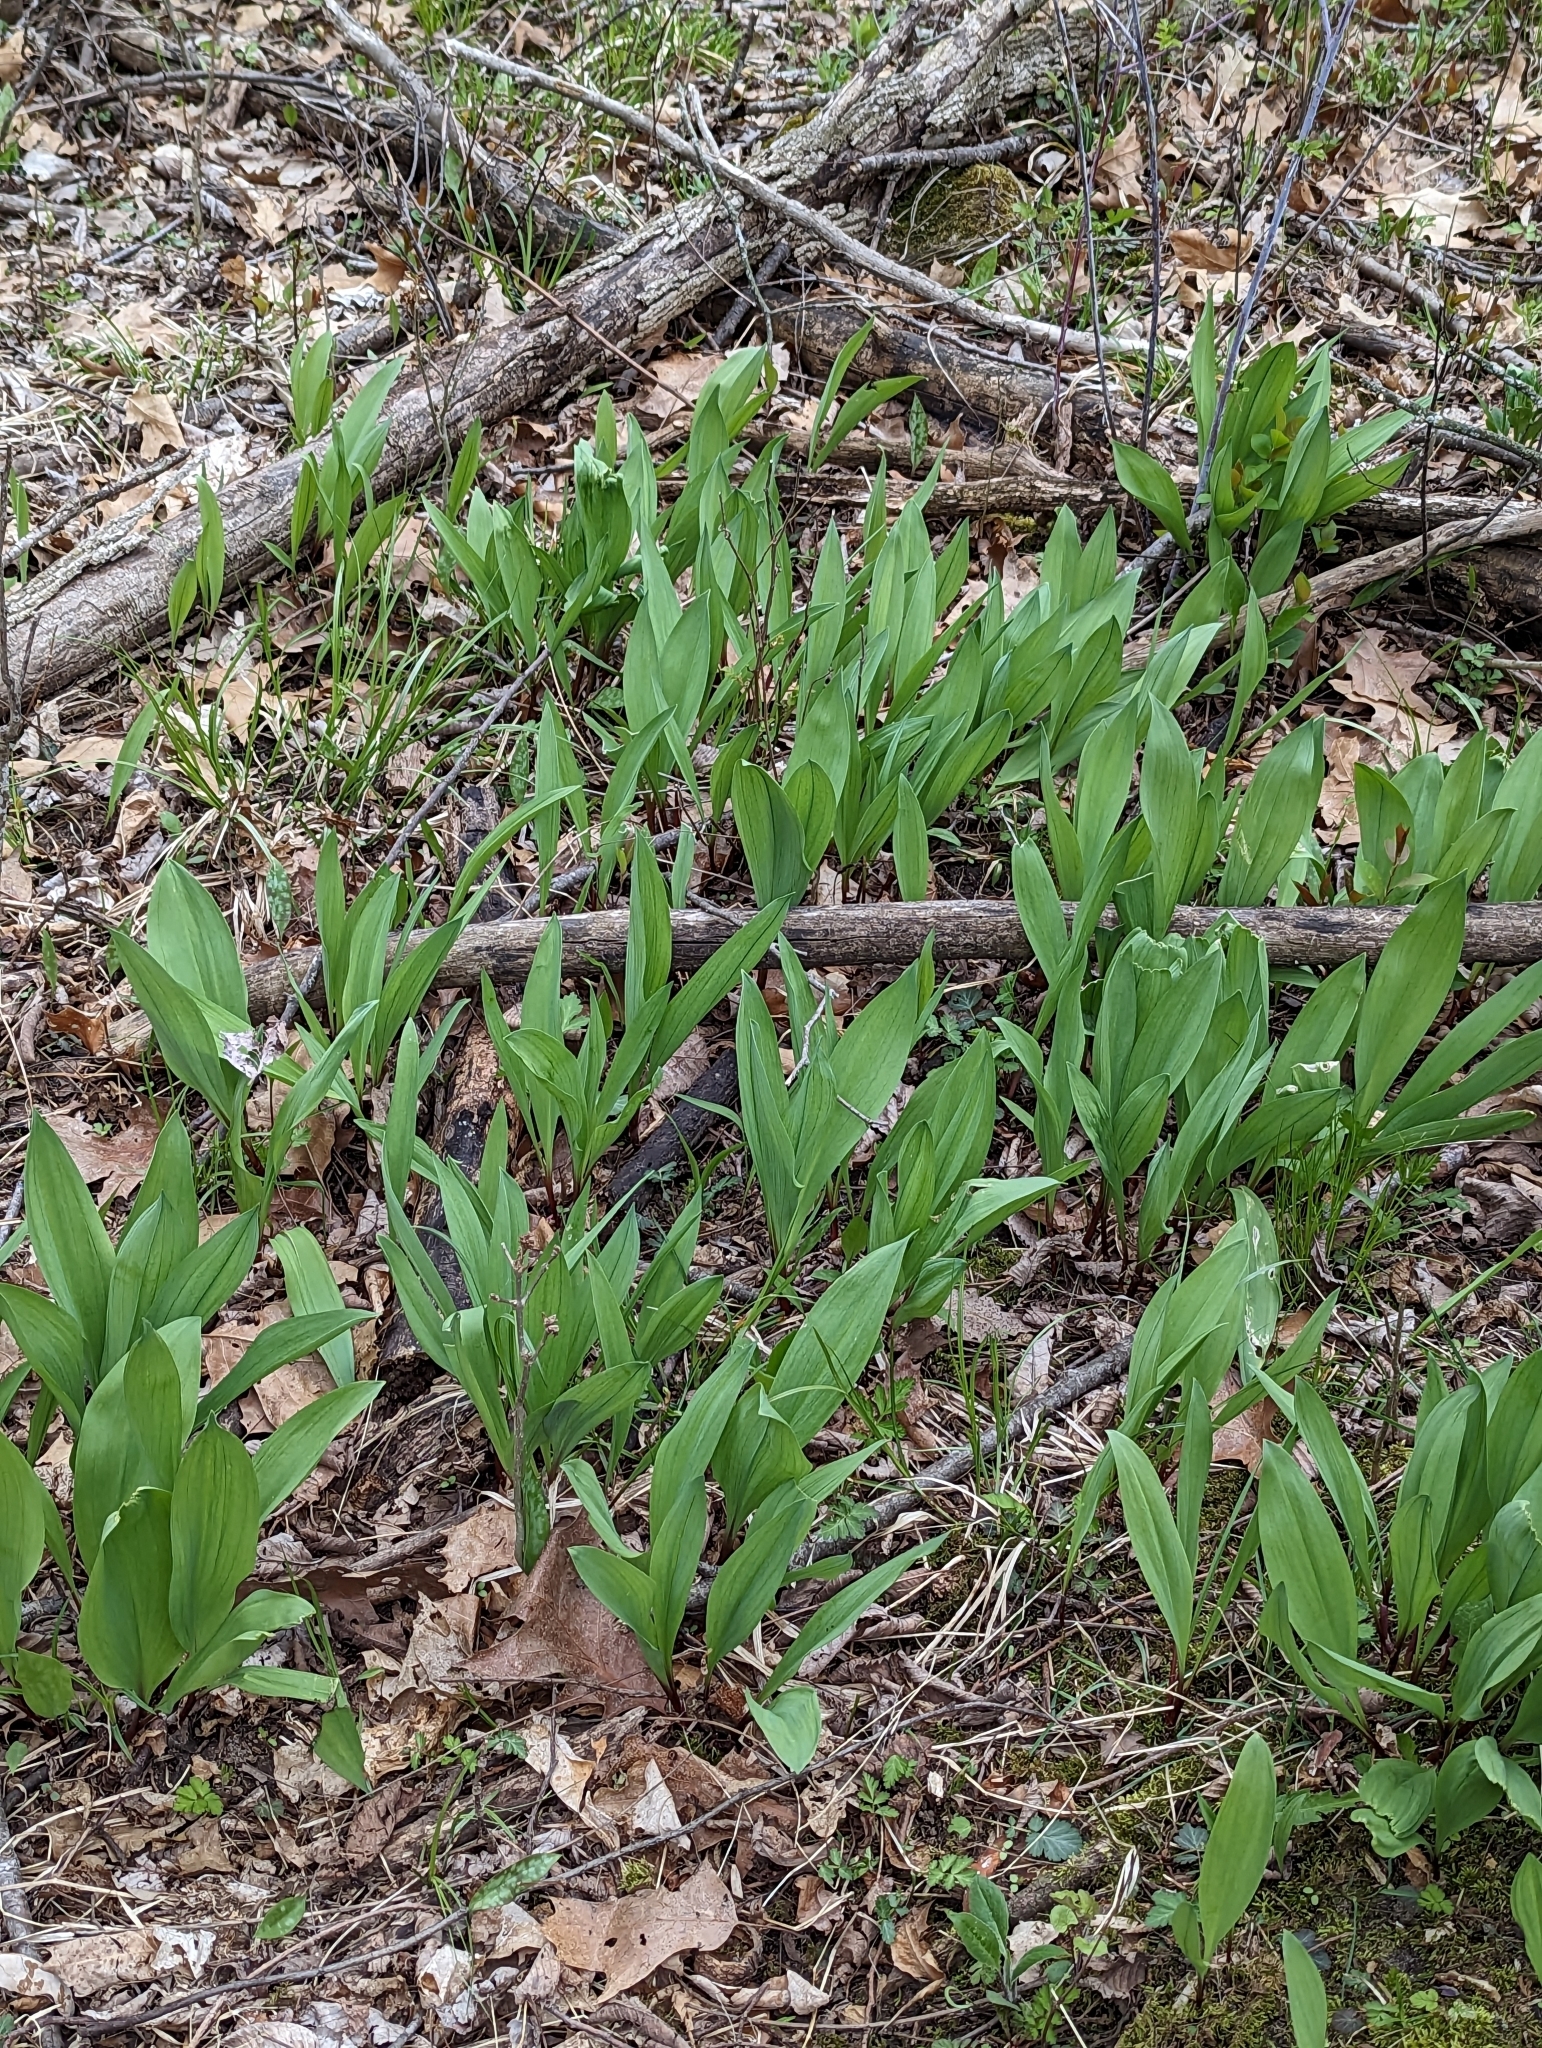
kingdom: Plantae
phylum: Tracheophyta
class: Liliopsida
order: Asparagales
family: Amaryllidaceae
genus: Allium
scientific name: Allium tricoccum
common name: Ramp
